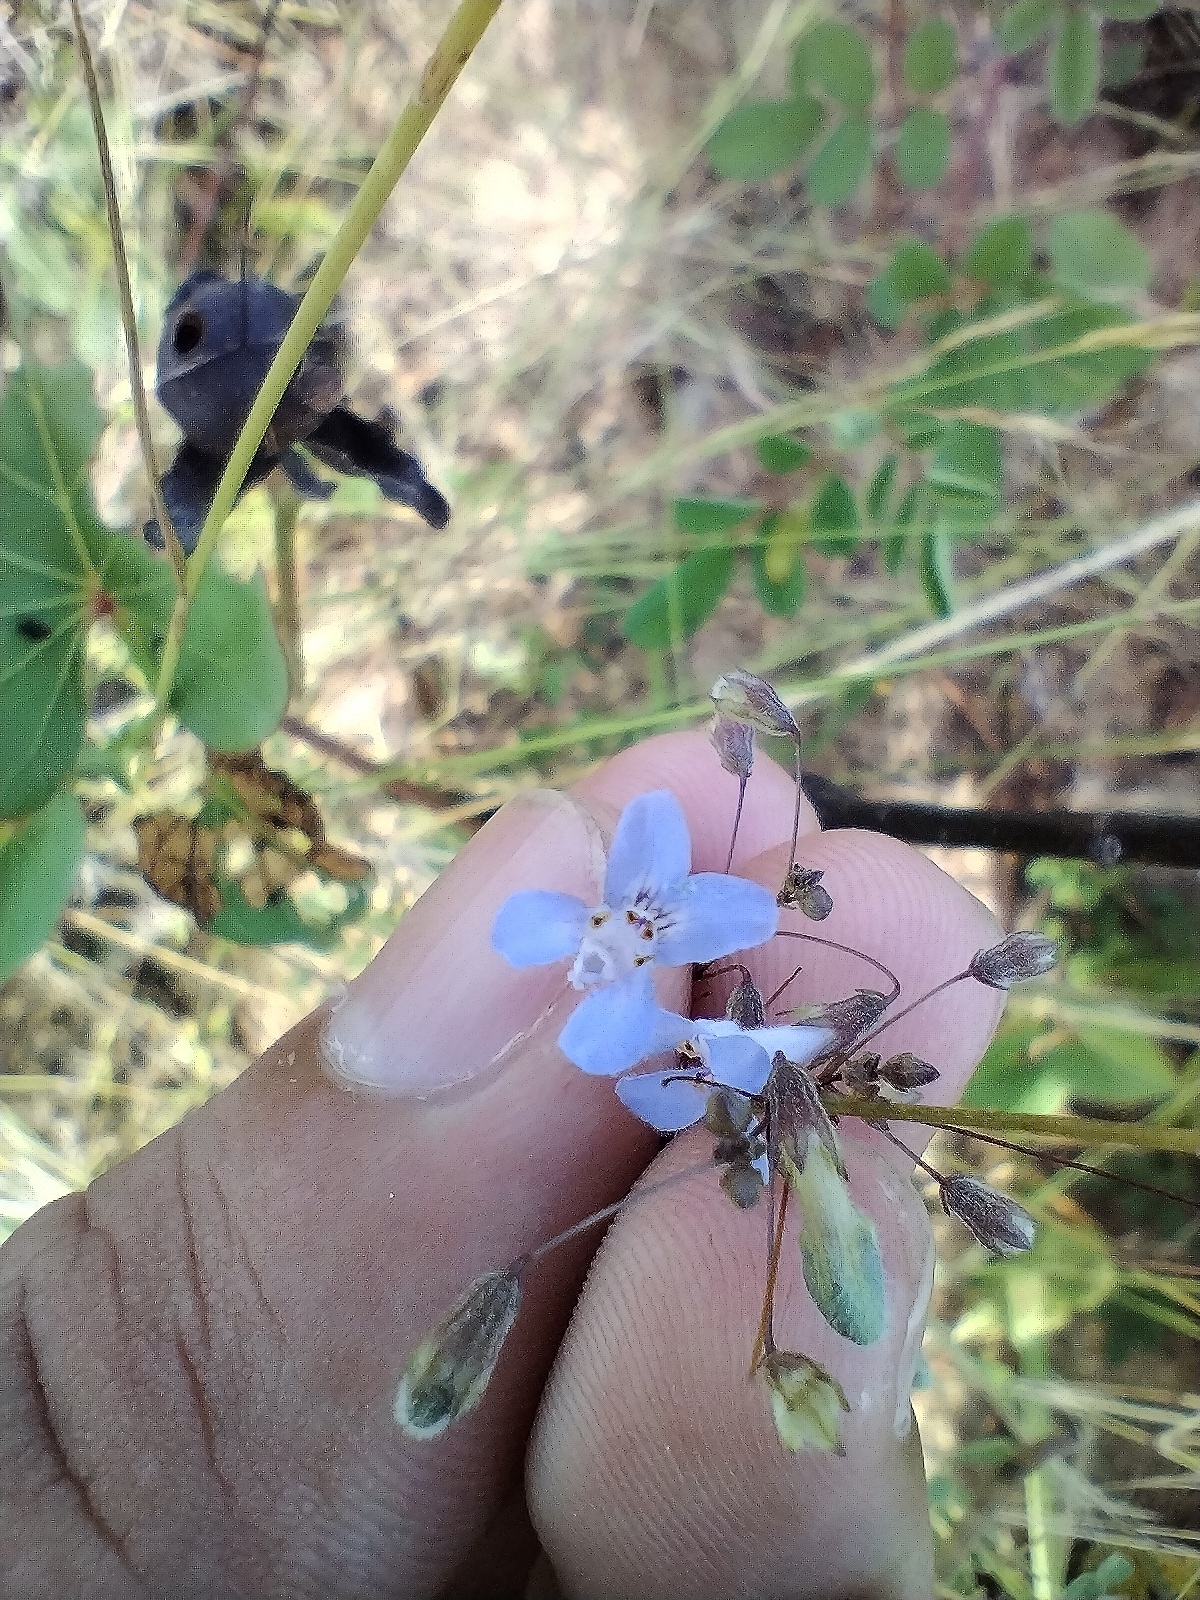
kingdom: Plantae
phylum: Tracheophyta
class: Magnoliopsida
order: Lamiales
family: Lamiaceae
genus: Hypenia
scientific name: Hypenia salzmannii
